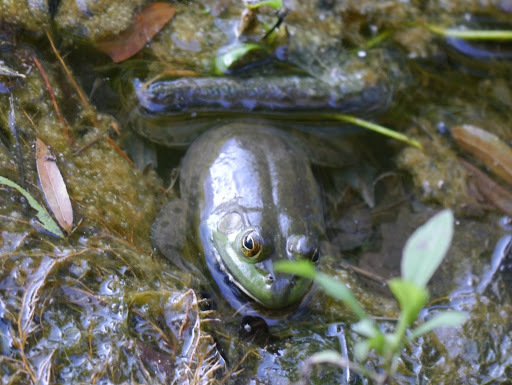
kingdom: Animalia
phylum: Chordata
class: Amphibia
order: Anura
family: Ranidae
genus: Lithobates
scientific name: Lithobates catesbeianus
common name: American bullfrog
